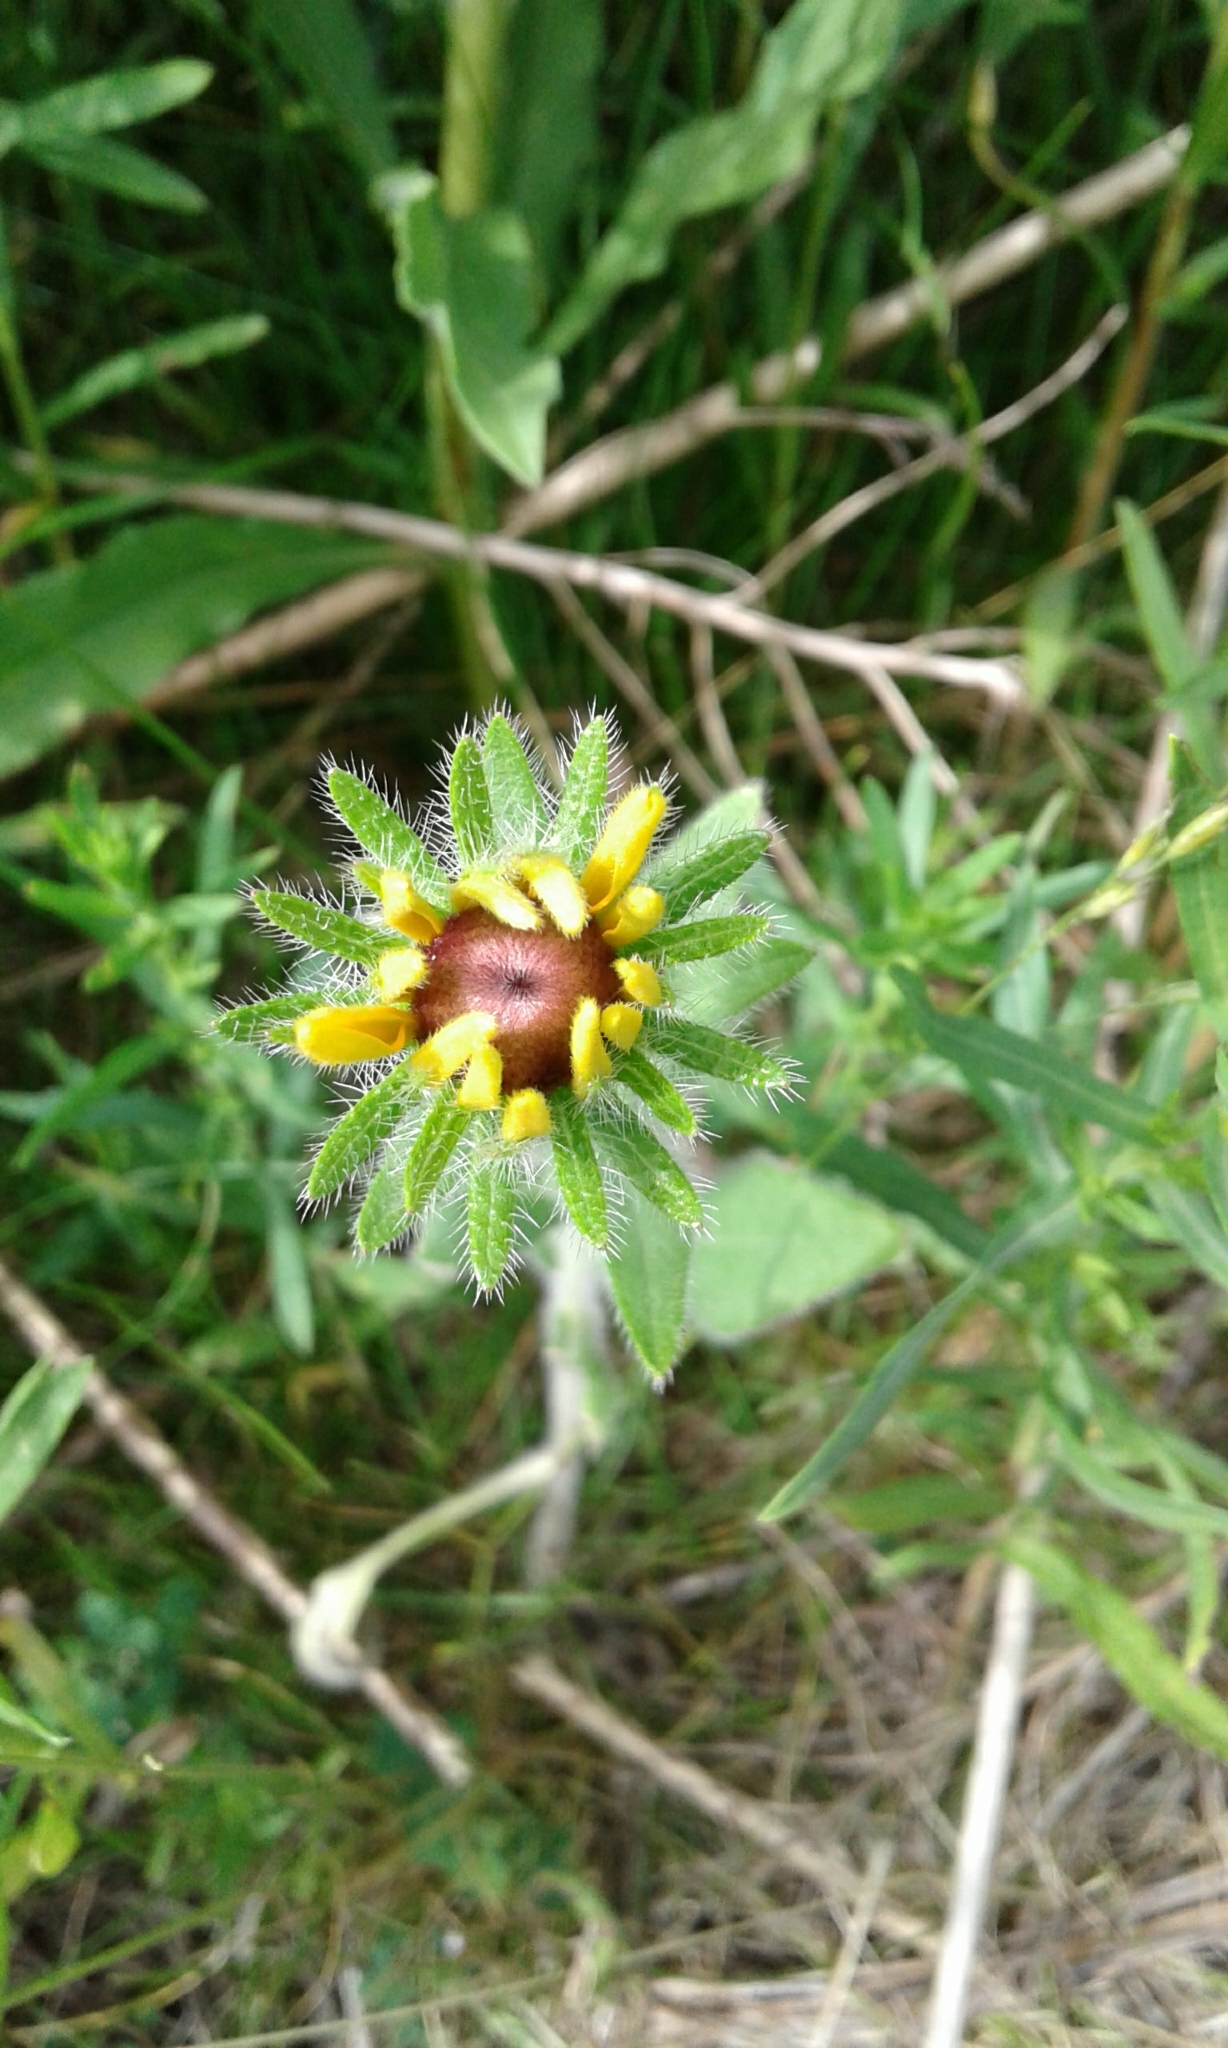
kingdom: Plantae
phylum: Tracheophyta
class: Magnoliopsida
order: Asterales
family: Asteraceae
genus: Rudbeckia
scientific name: Rudbeckia hirta
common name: Black-eyed-susan
